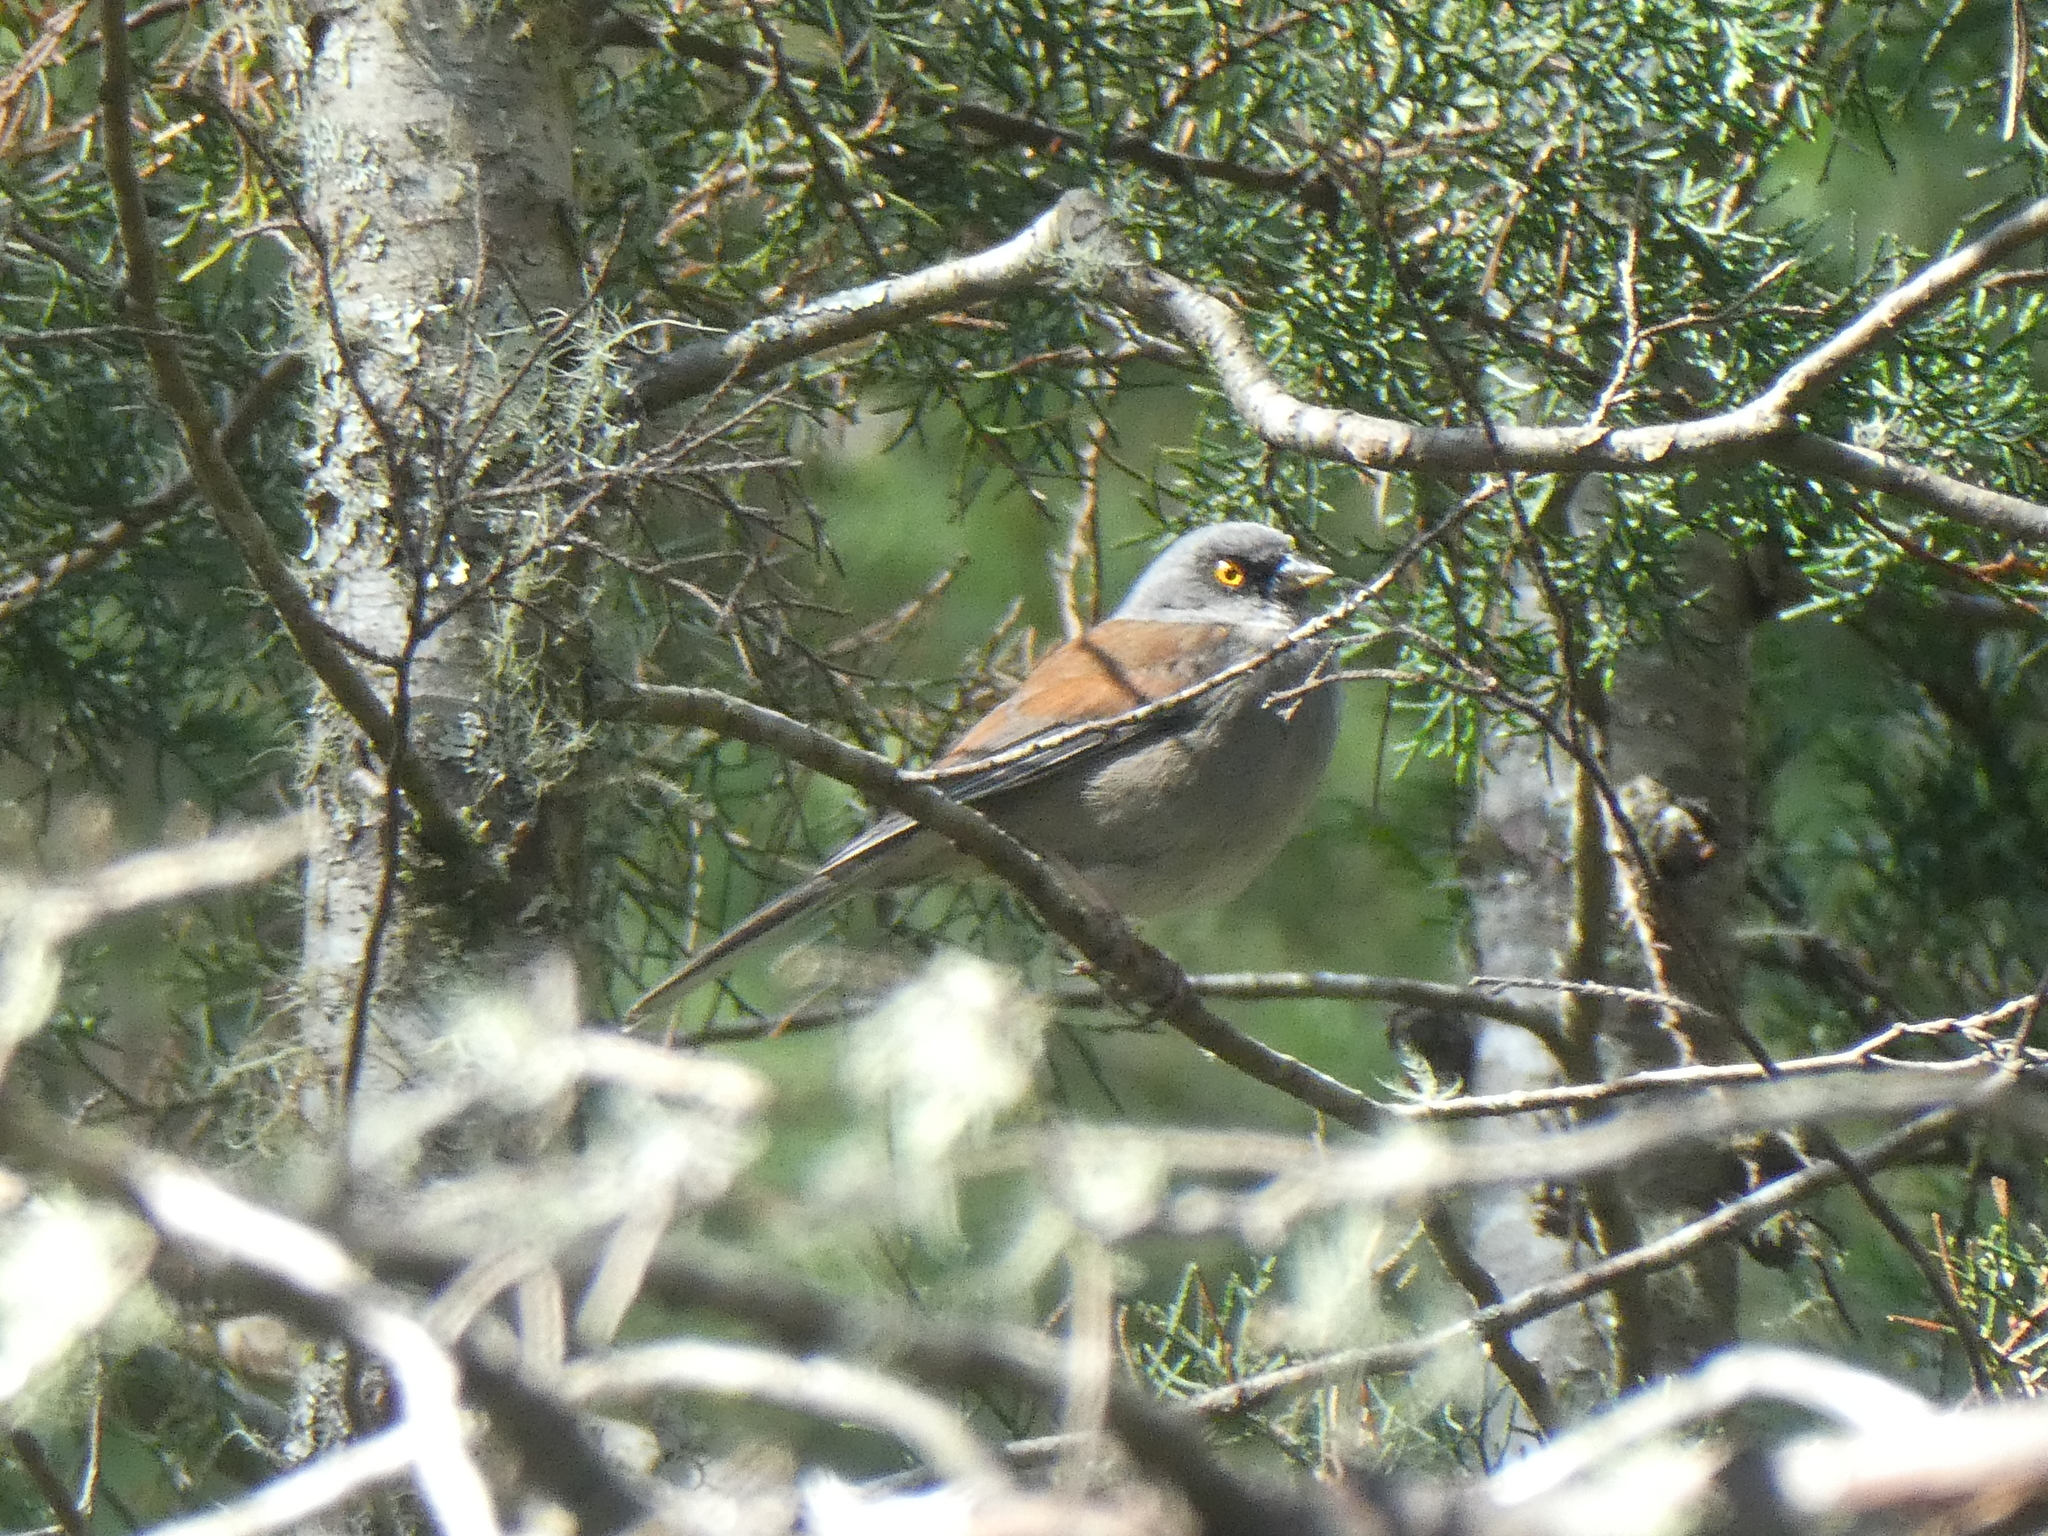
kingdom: Animalia
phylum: Chordata
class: Aves
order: Passeriformes
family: Passerellidae
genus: Junco
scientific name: Junco phaeonotus
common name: Yellow-eyed junco
